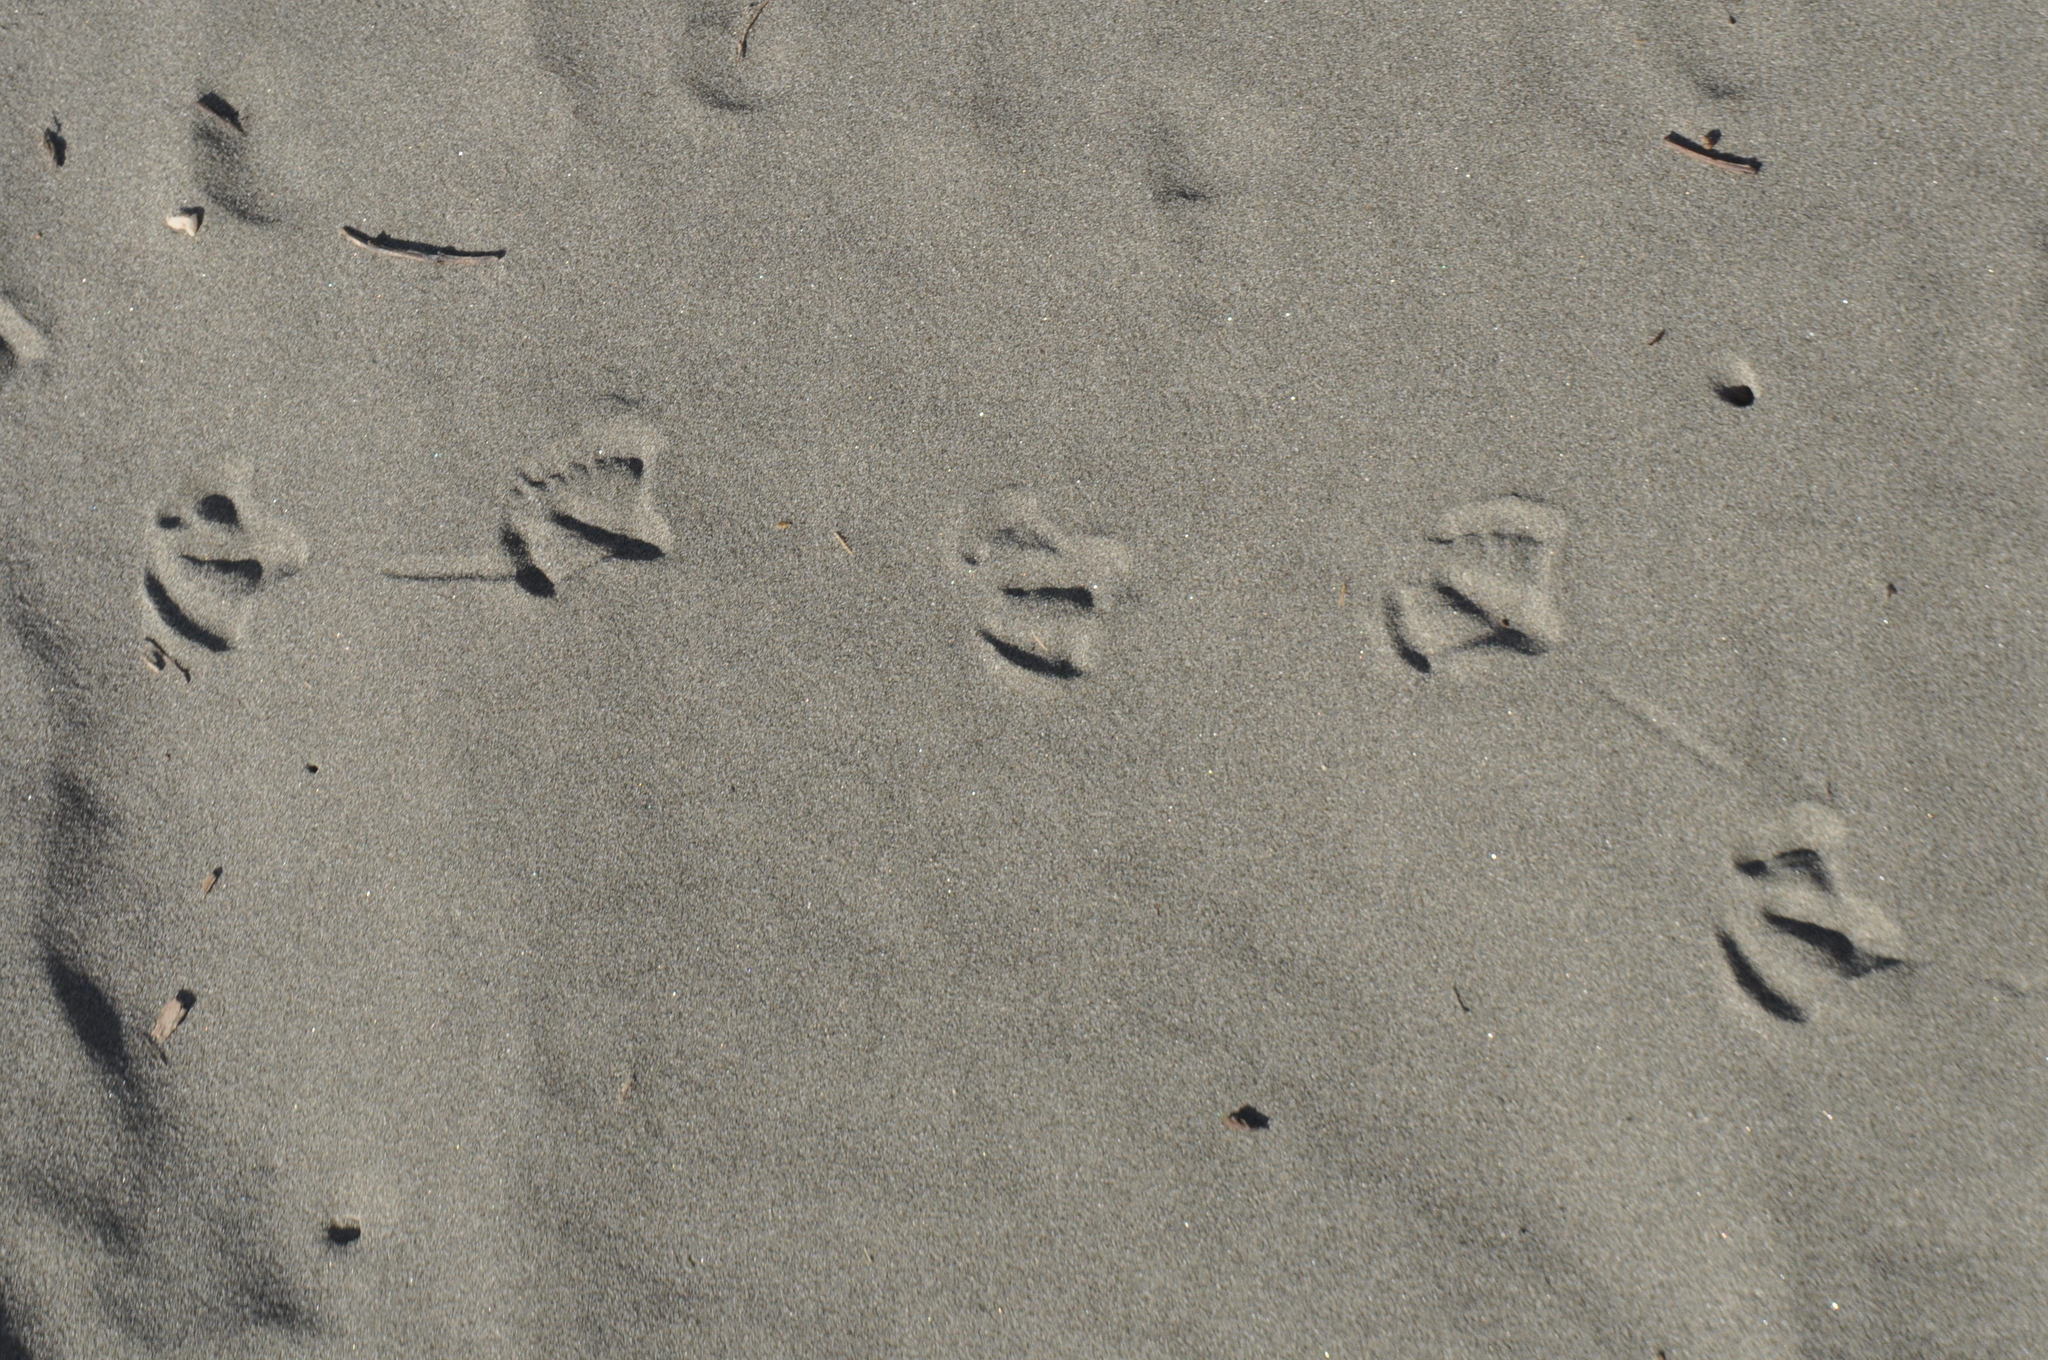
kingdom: Animalia
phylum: Chordata
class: Aves
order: Charadriiformes
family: Laridae
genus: Chroicocephalus
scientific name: Chroicocephalus novaehollandiae
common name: Silver gull
